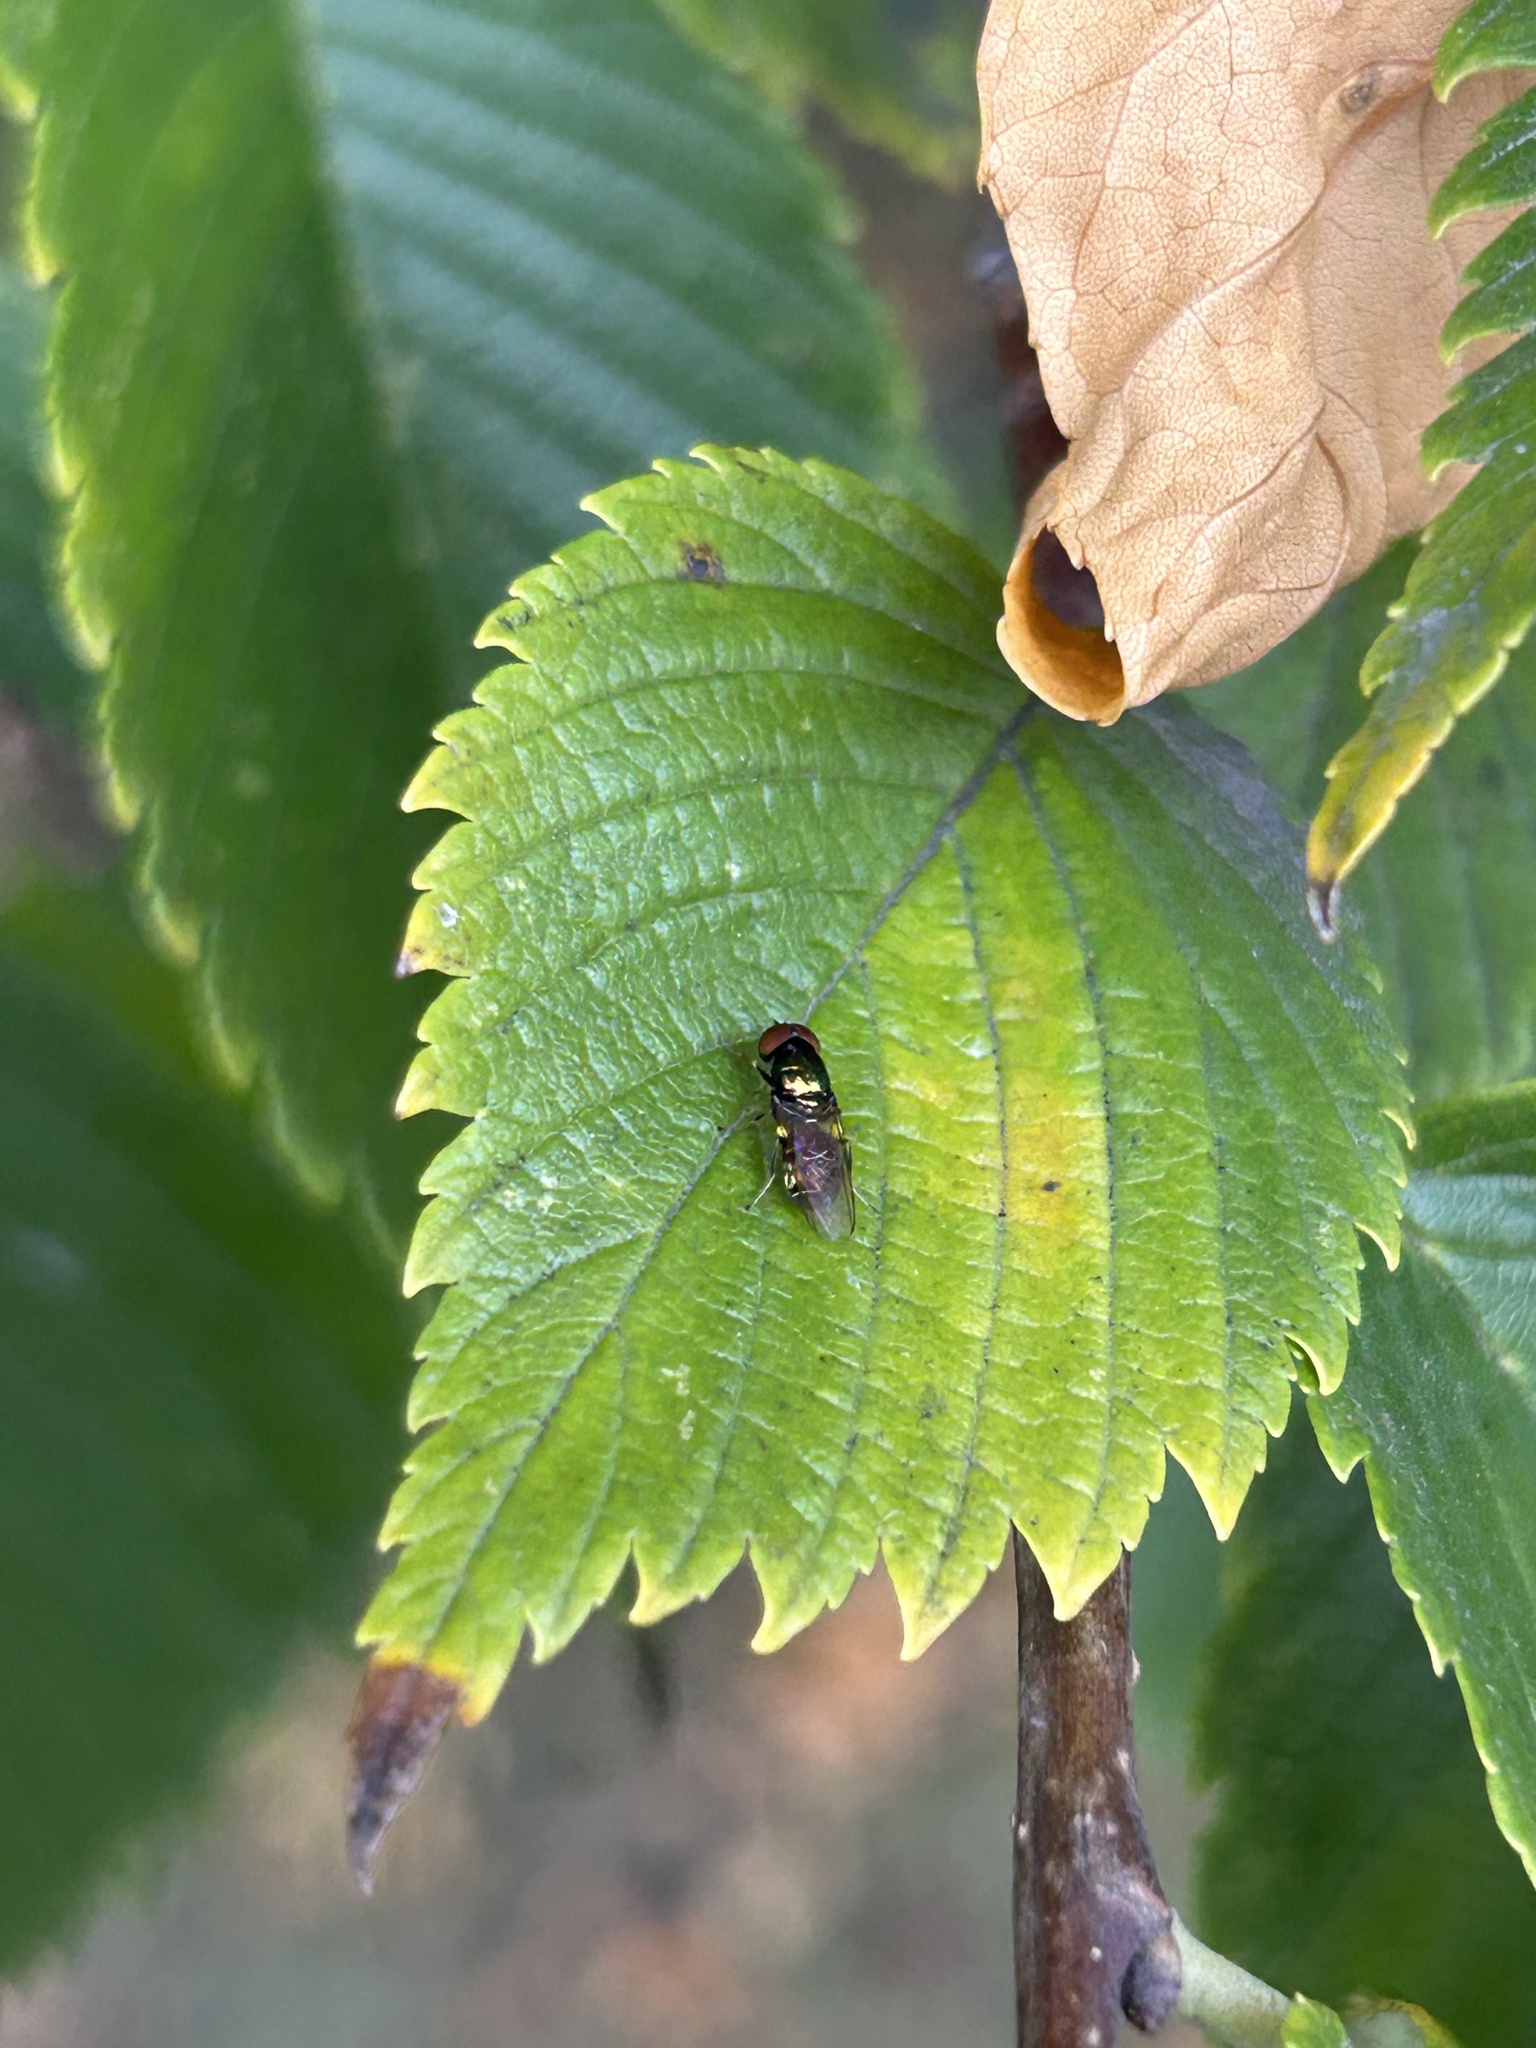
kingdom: Animalia
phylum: Arthropoda
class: Insecta
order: Diptera
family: Stratiomyidae
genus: Microchrysa
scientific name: Microchrysa polita
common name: Black-horned gem
